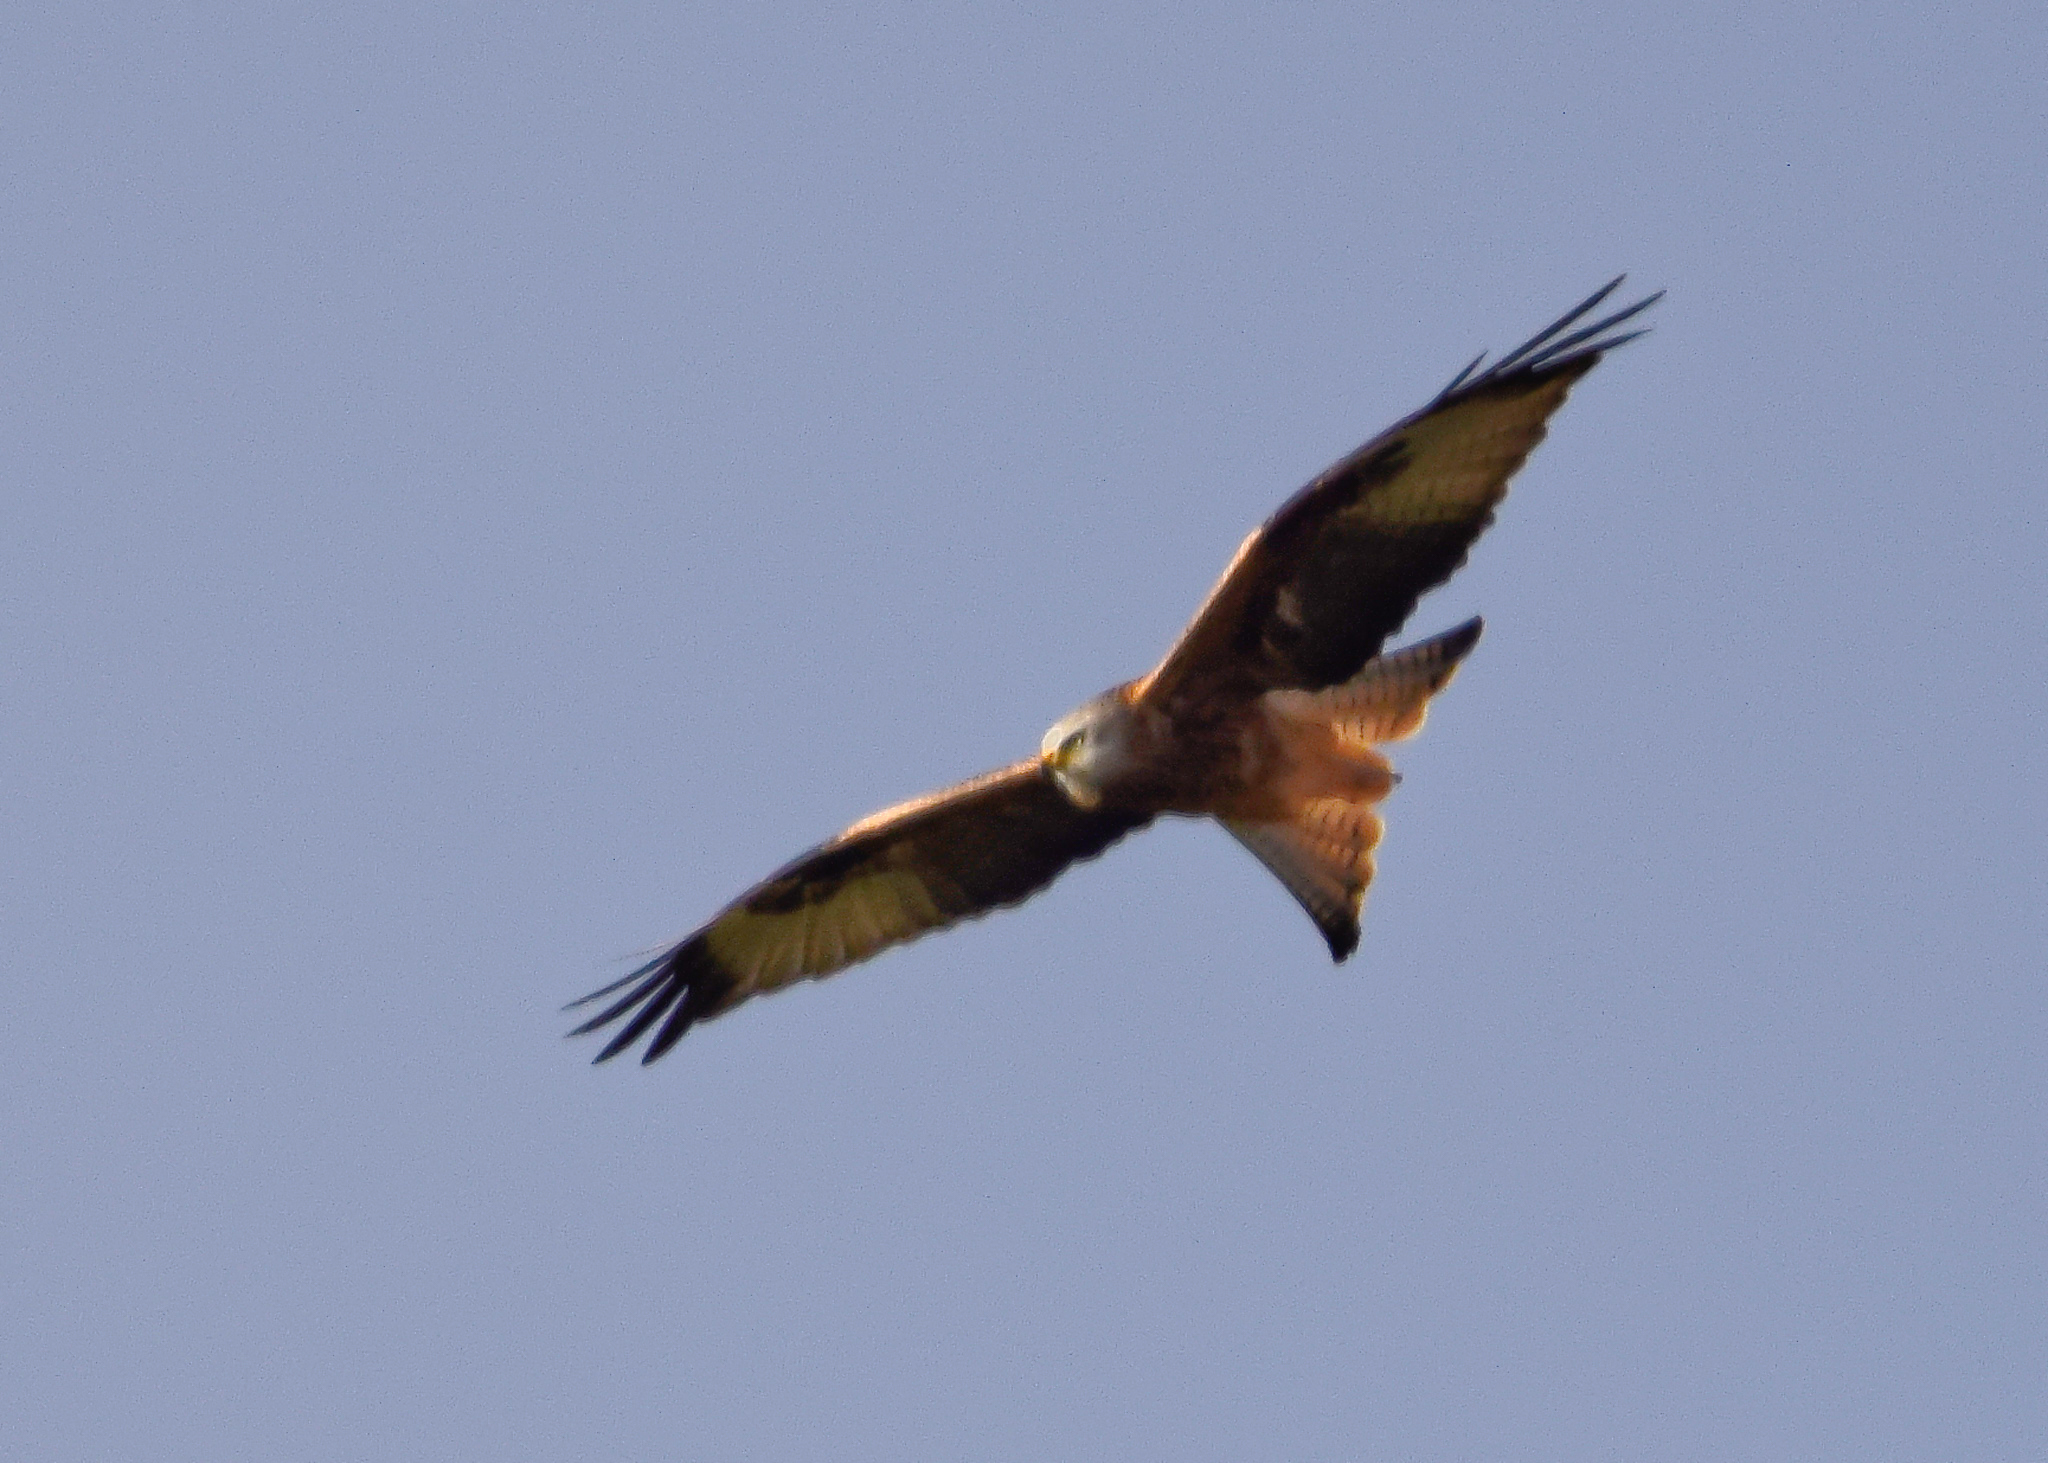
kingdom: Animalia
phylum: Chordata
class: Aves
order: Accipitriformes
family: Accipitridae
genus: Milvus
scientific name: Milvus milvus
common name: Red kite
